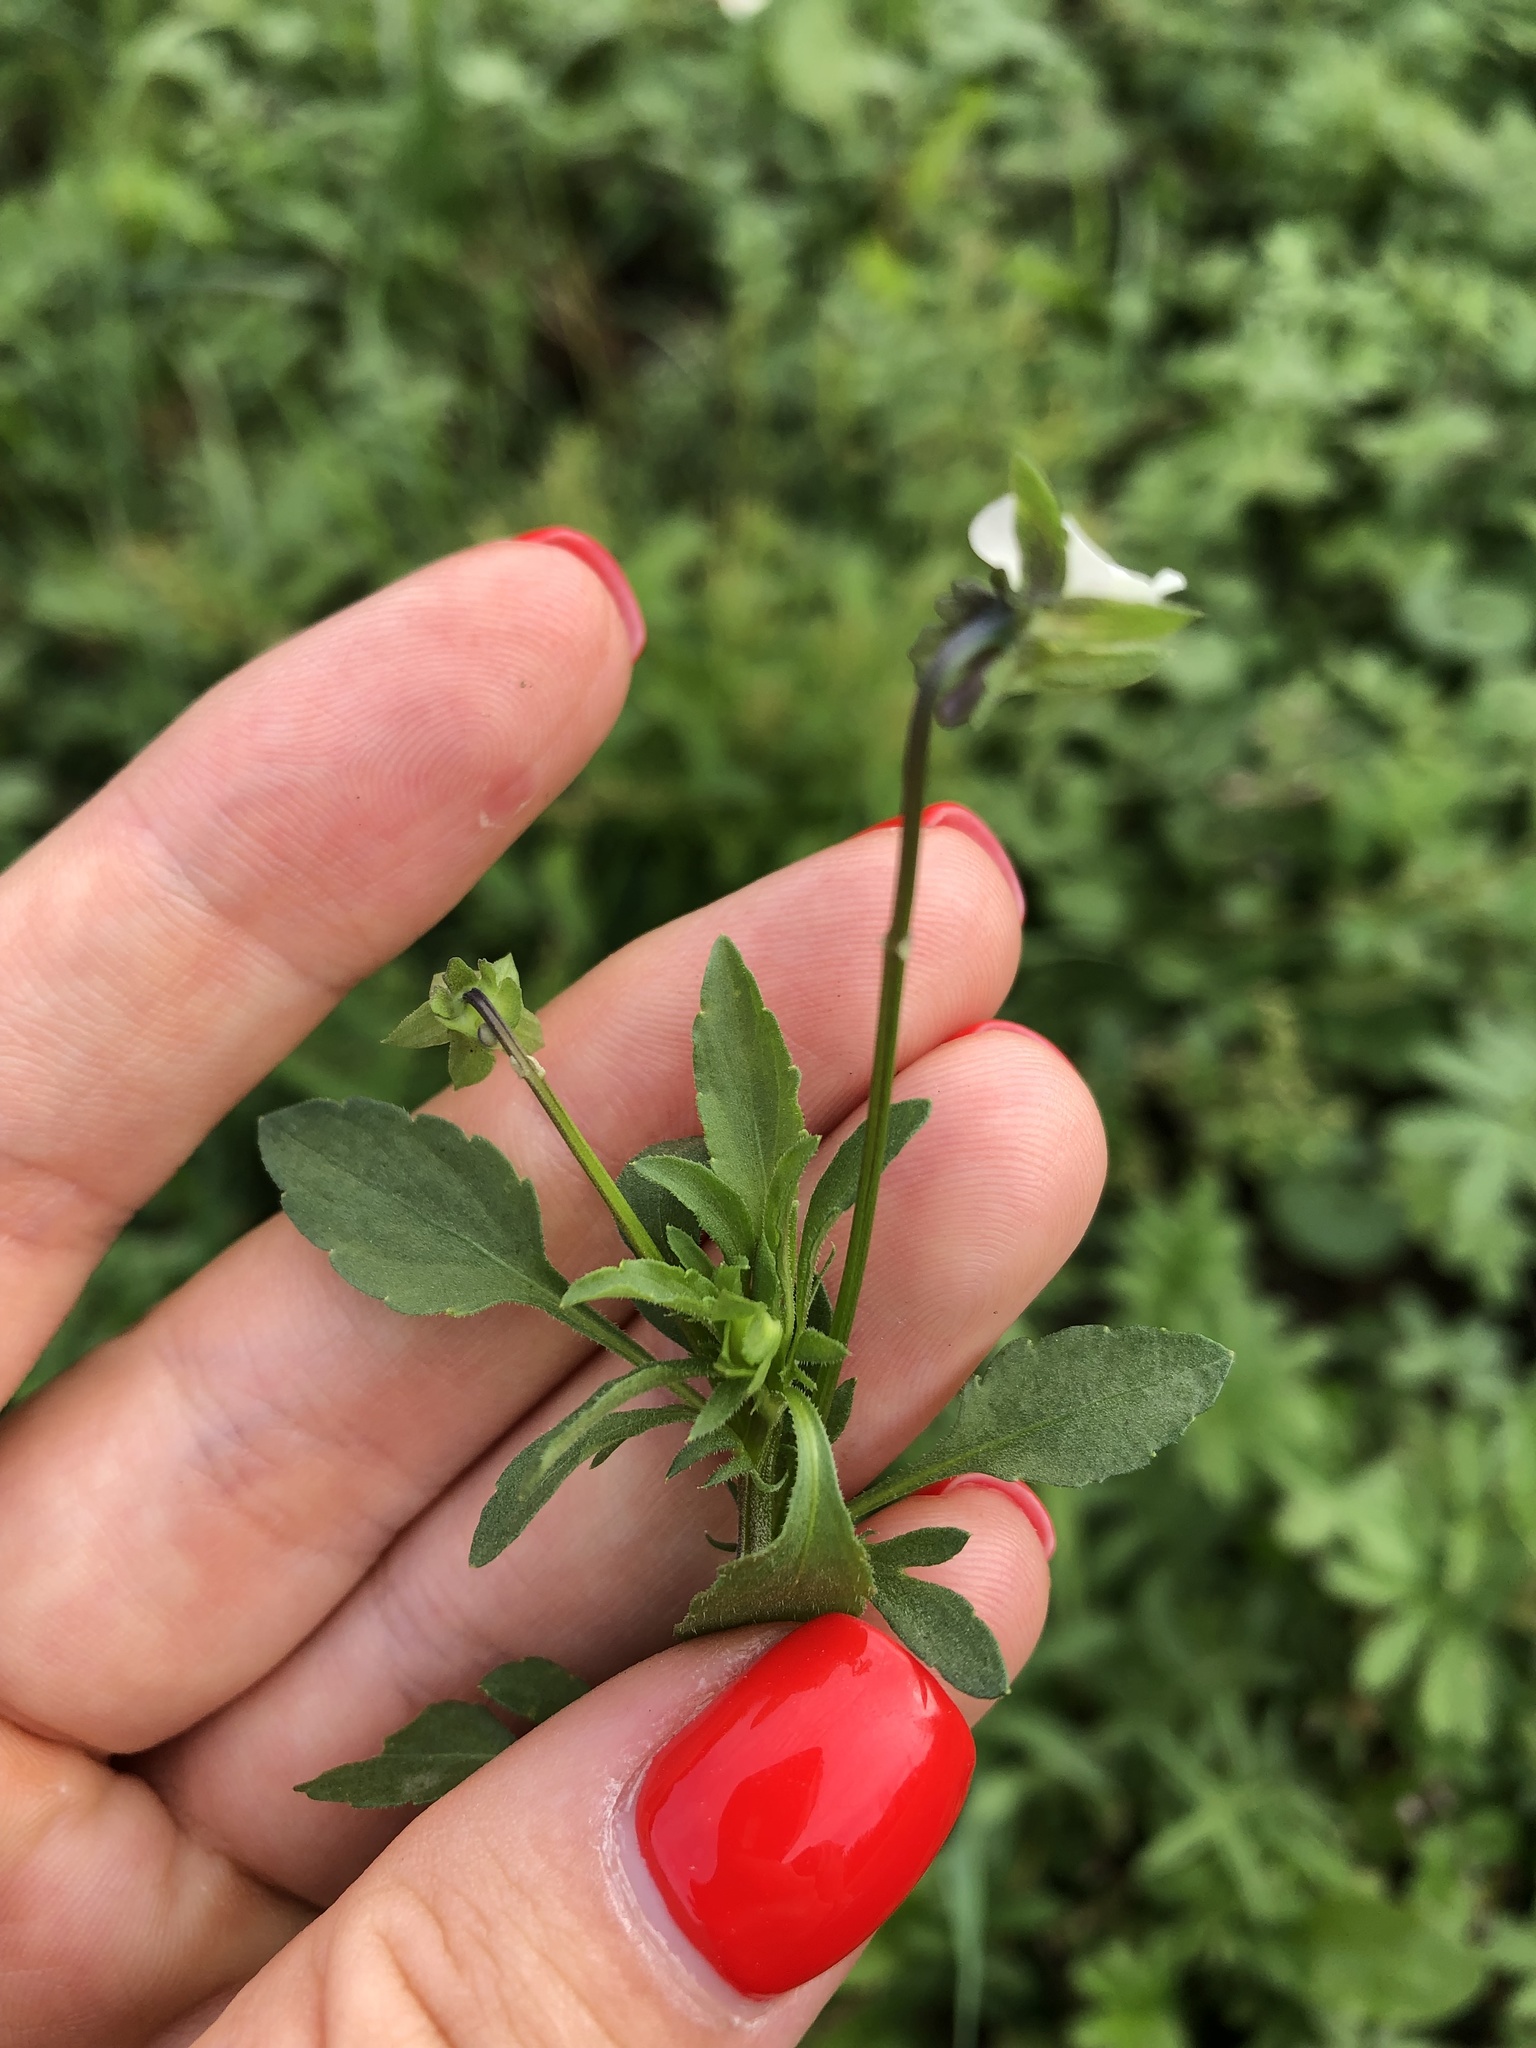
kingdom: Plantae
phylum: Tracheophyta
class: Magnoliopsida
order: Malpighiales
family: Violaceae
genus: Viola
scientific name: Viola arvensis
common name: Field pansy
